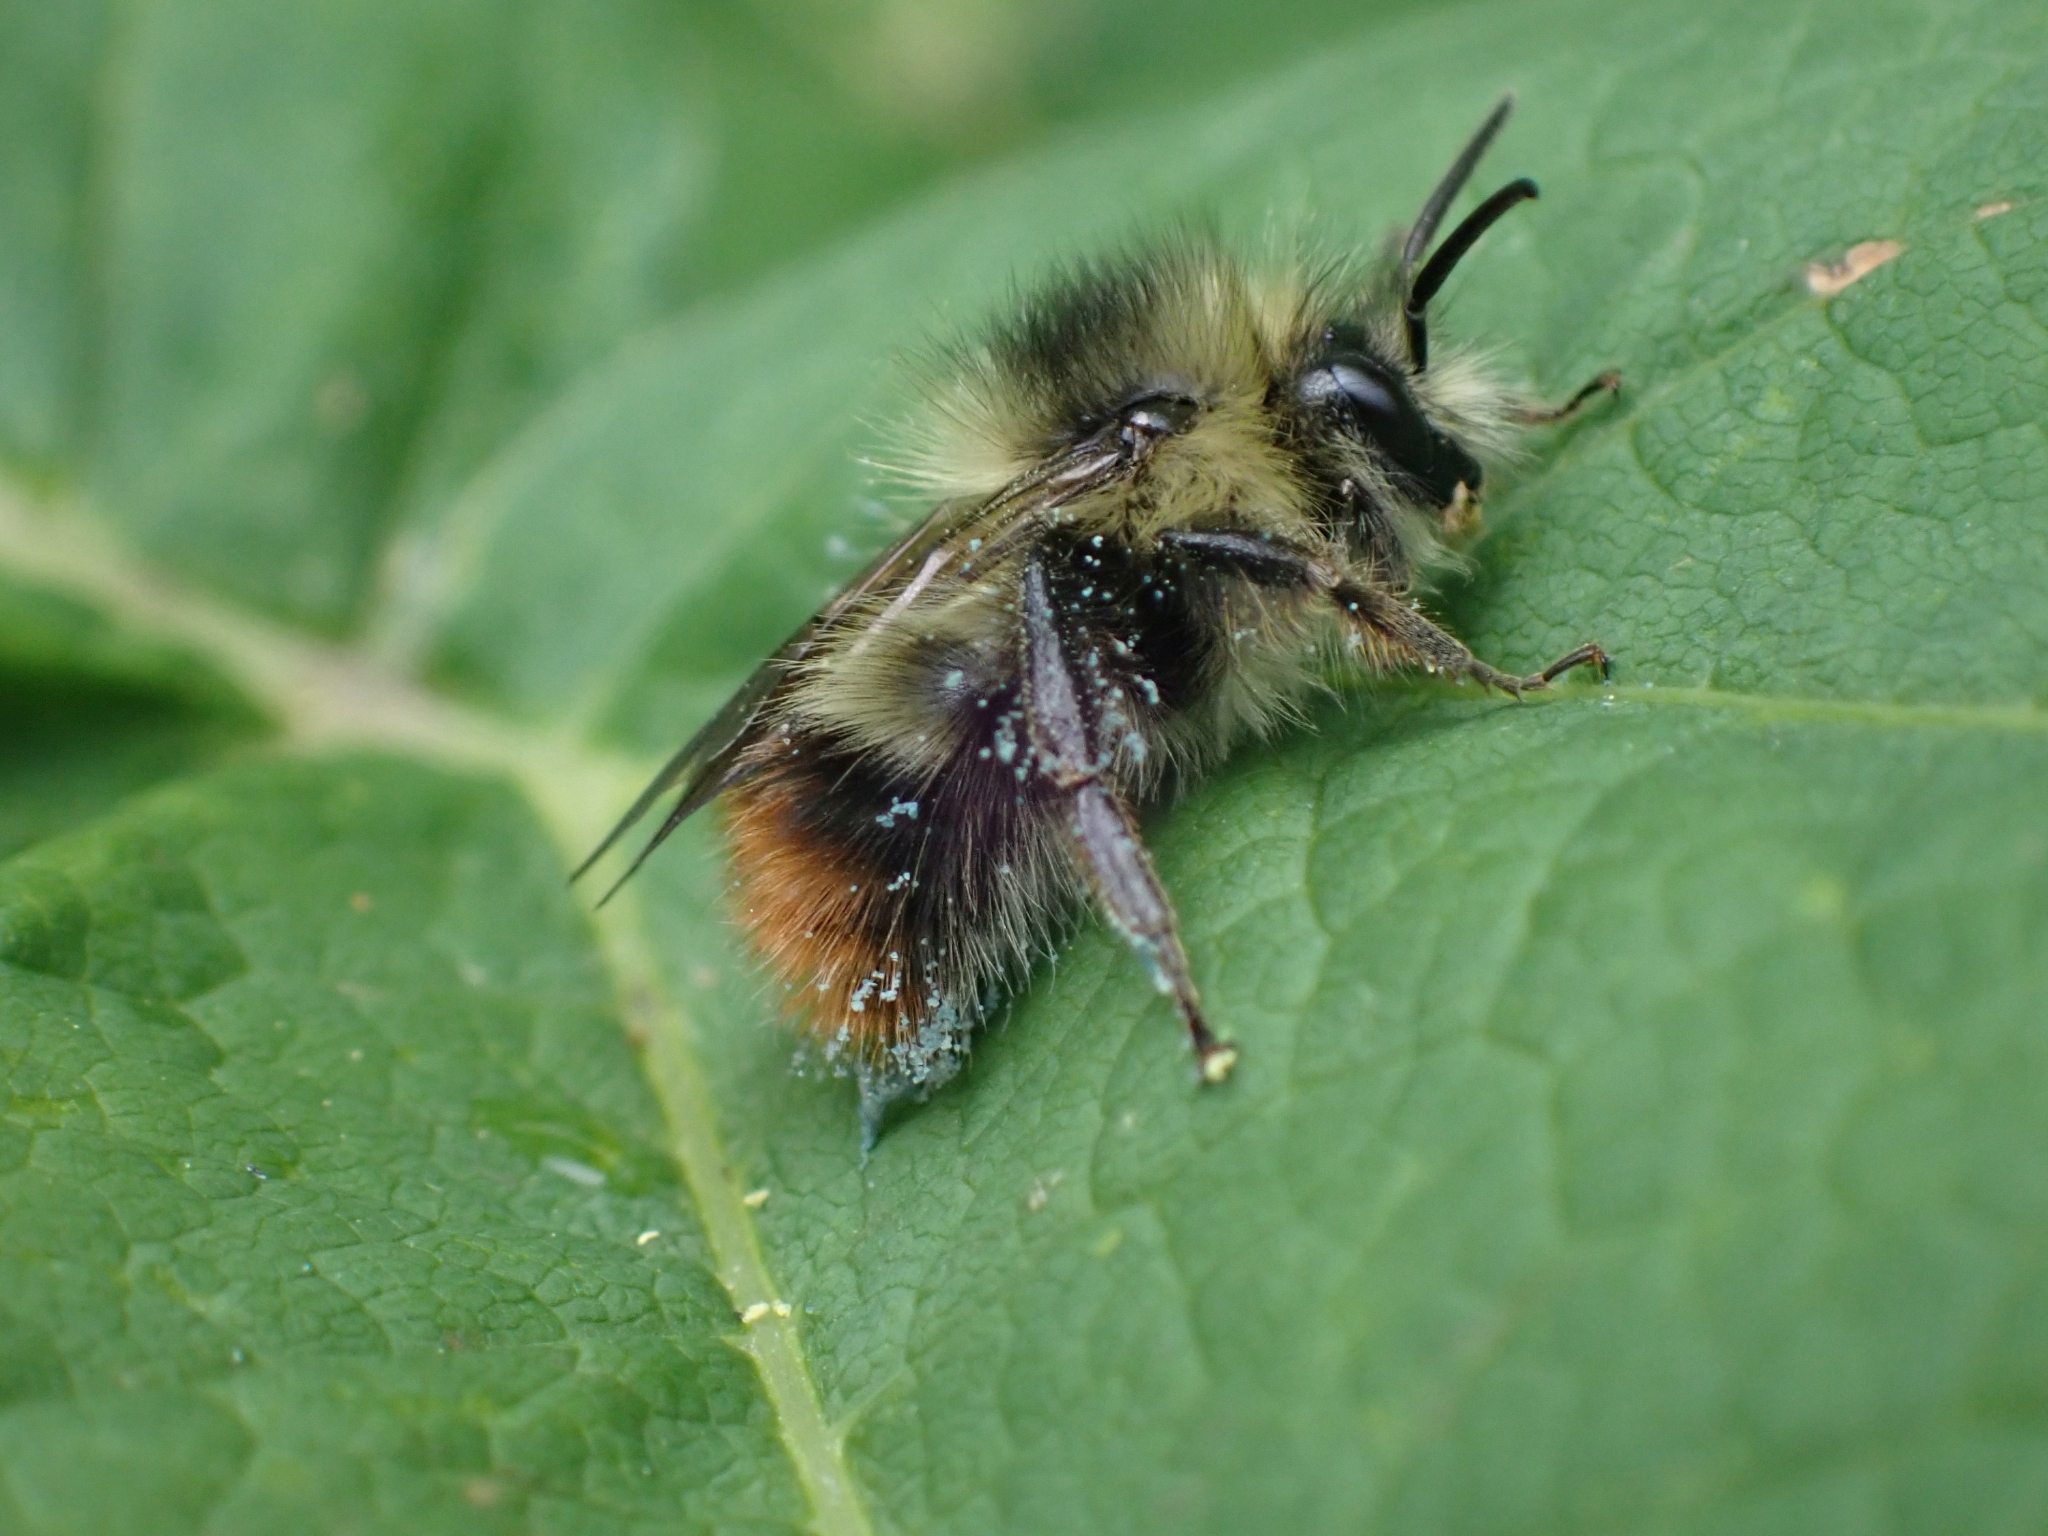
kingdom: Animalia
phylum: Arthropoda
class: Insecta
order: Hymenoptera
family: Apidae
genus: Bombus
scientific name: Bombus mixtus
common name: Fuzzy-horned bumble bee
